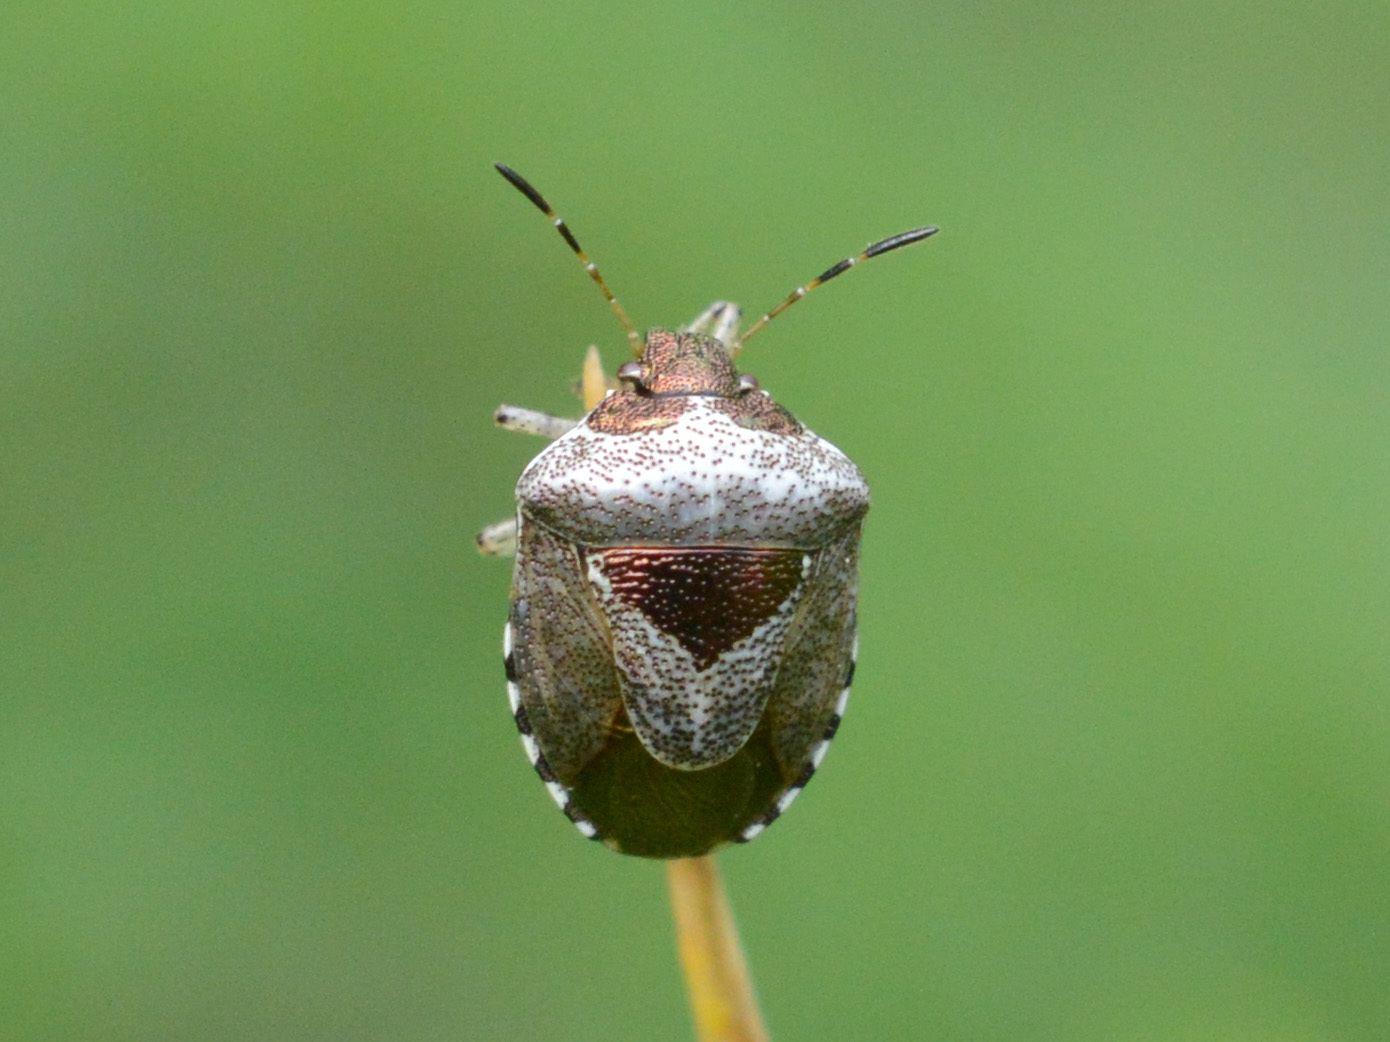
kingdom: Animalia
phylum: Arthropoda
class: Insecta
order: Hemiptera
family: Pentatomidae
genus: Eysarcoris
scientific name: Eysarcoris venustissimus
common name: Woundwort shieldbug
